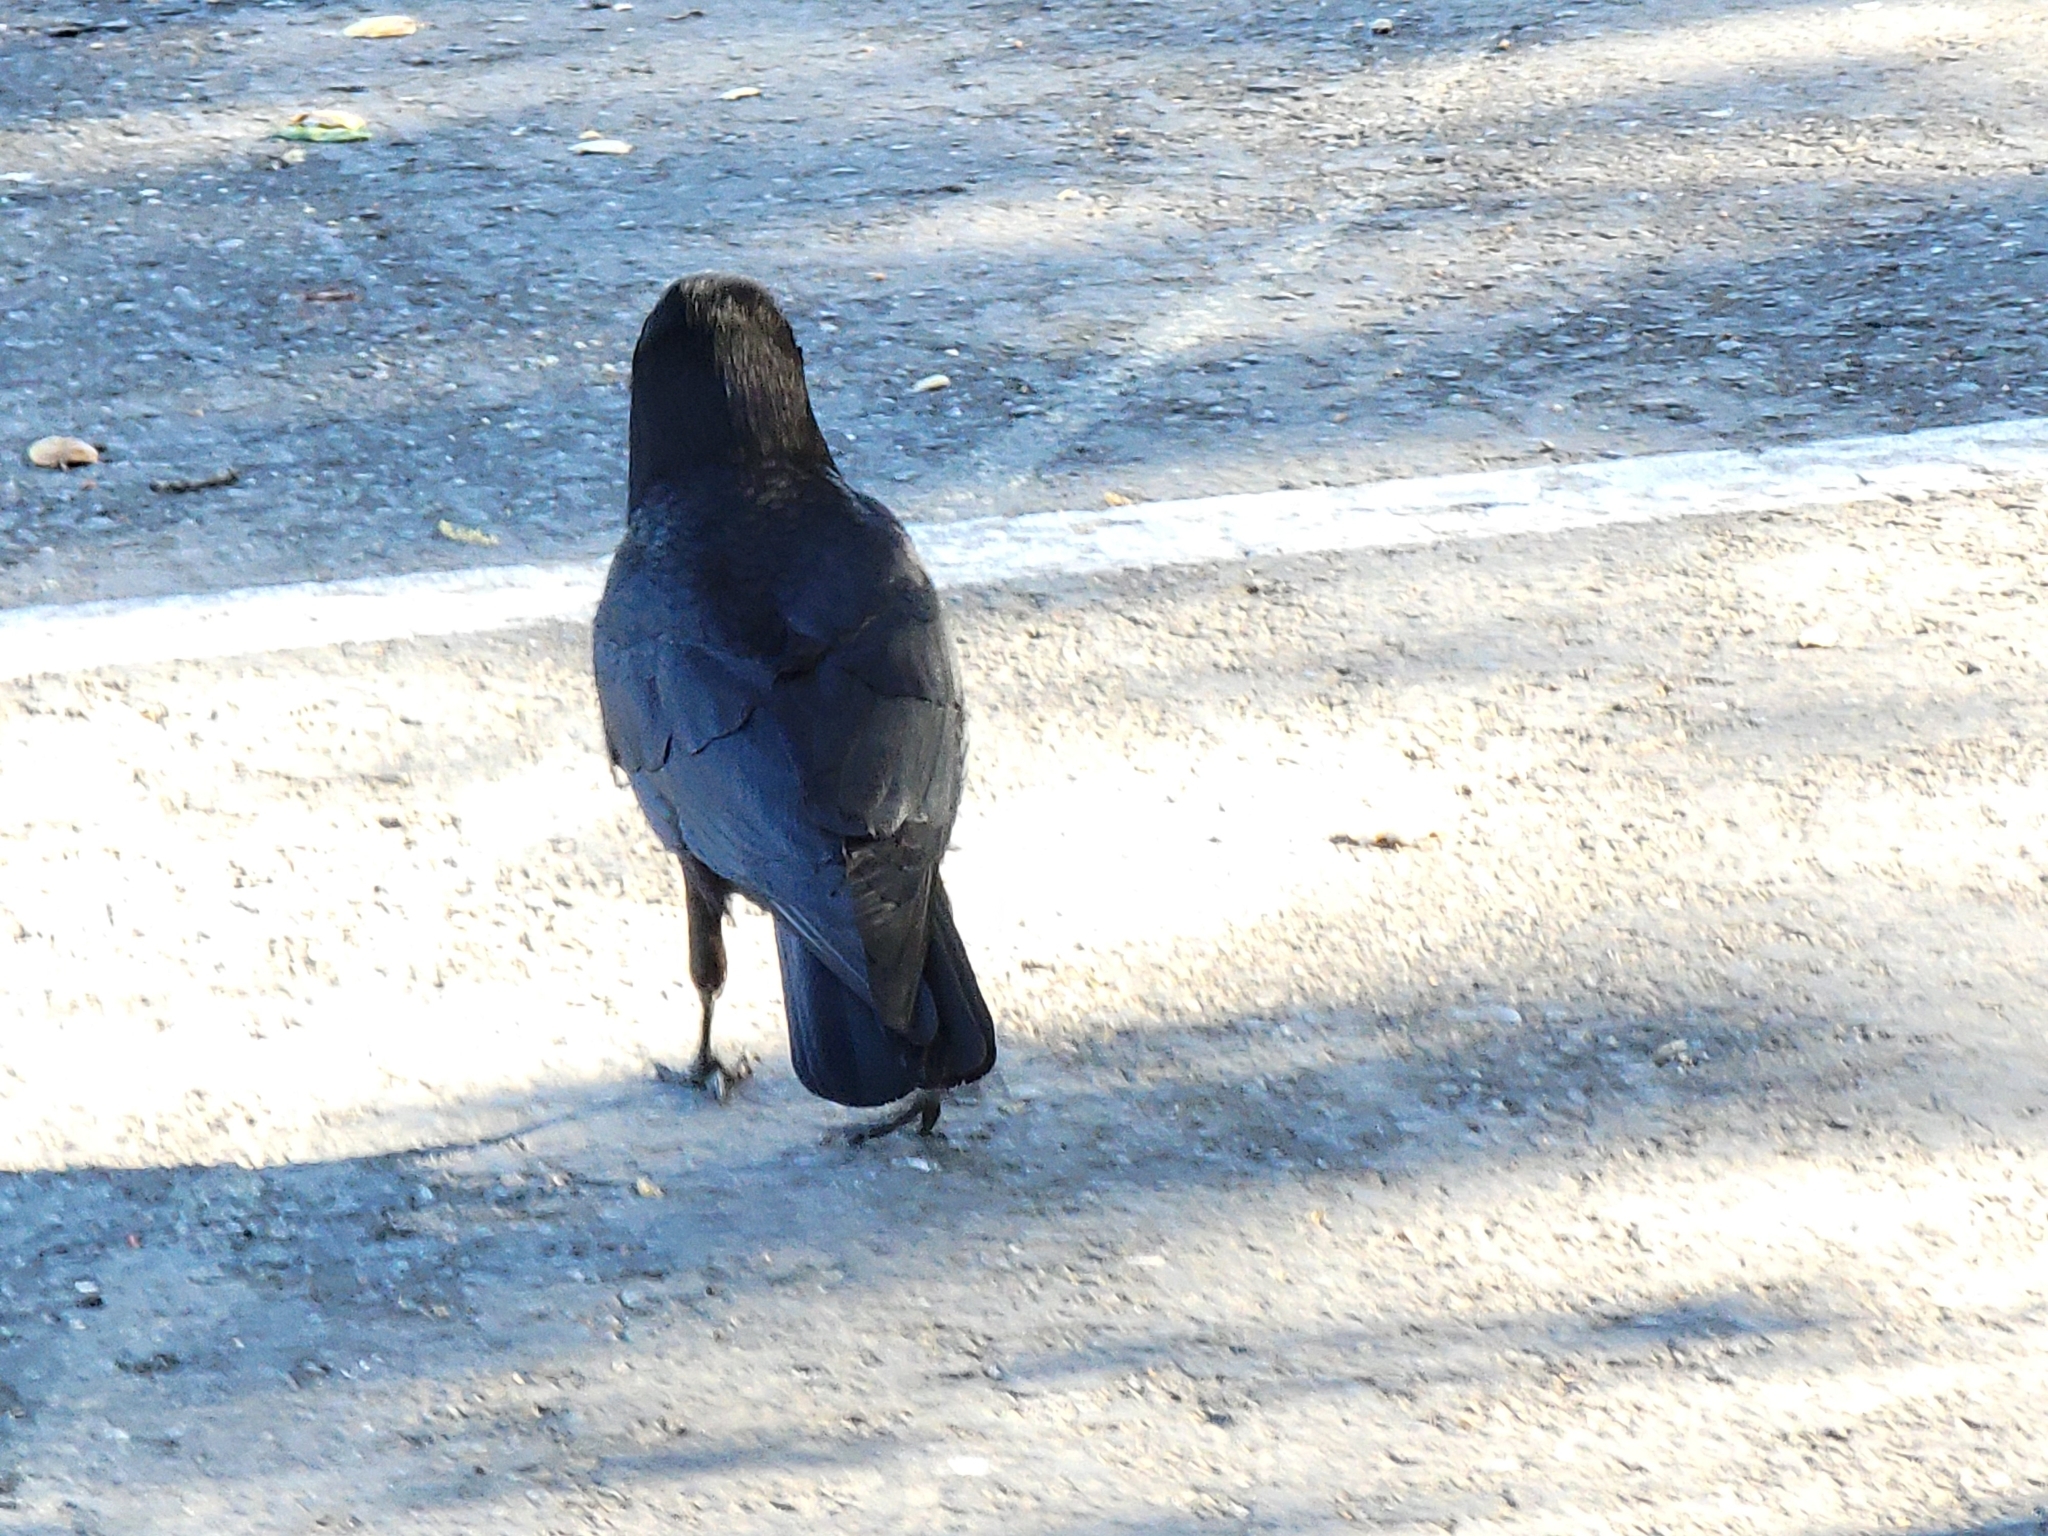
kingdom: Animalia
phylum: Chordata
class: Aves
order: Passeriformes
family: Corvidae
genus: Corvus
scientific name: Corvus brachyrhynchos
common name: American crow
